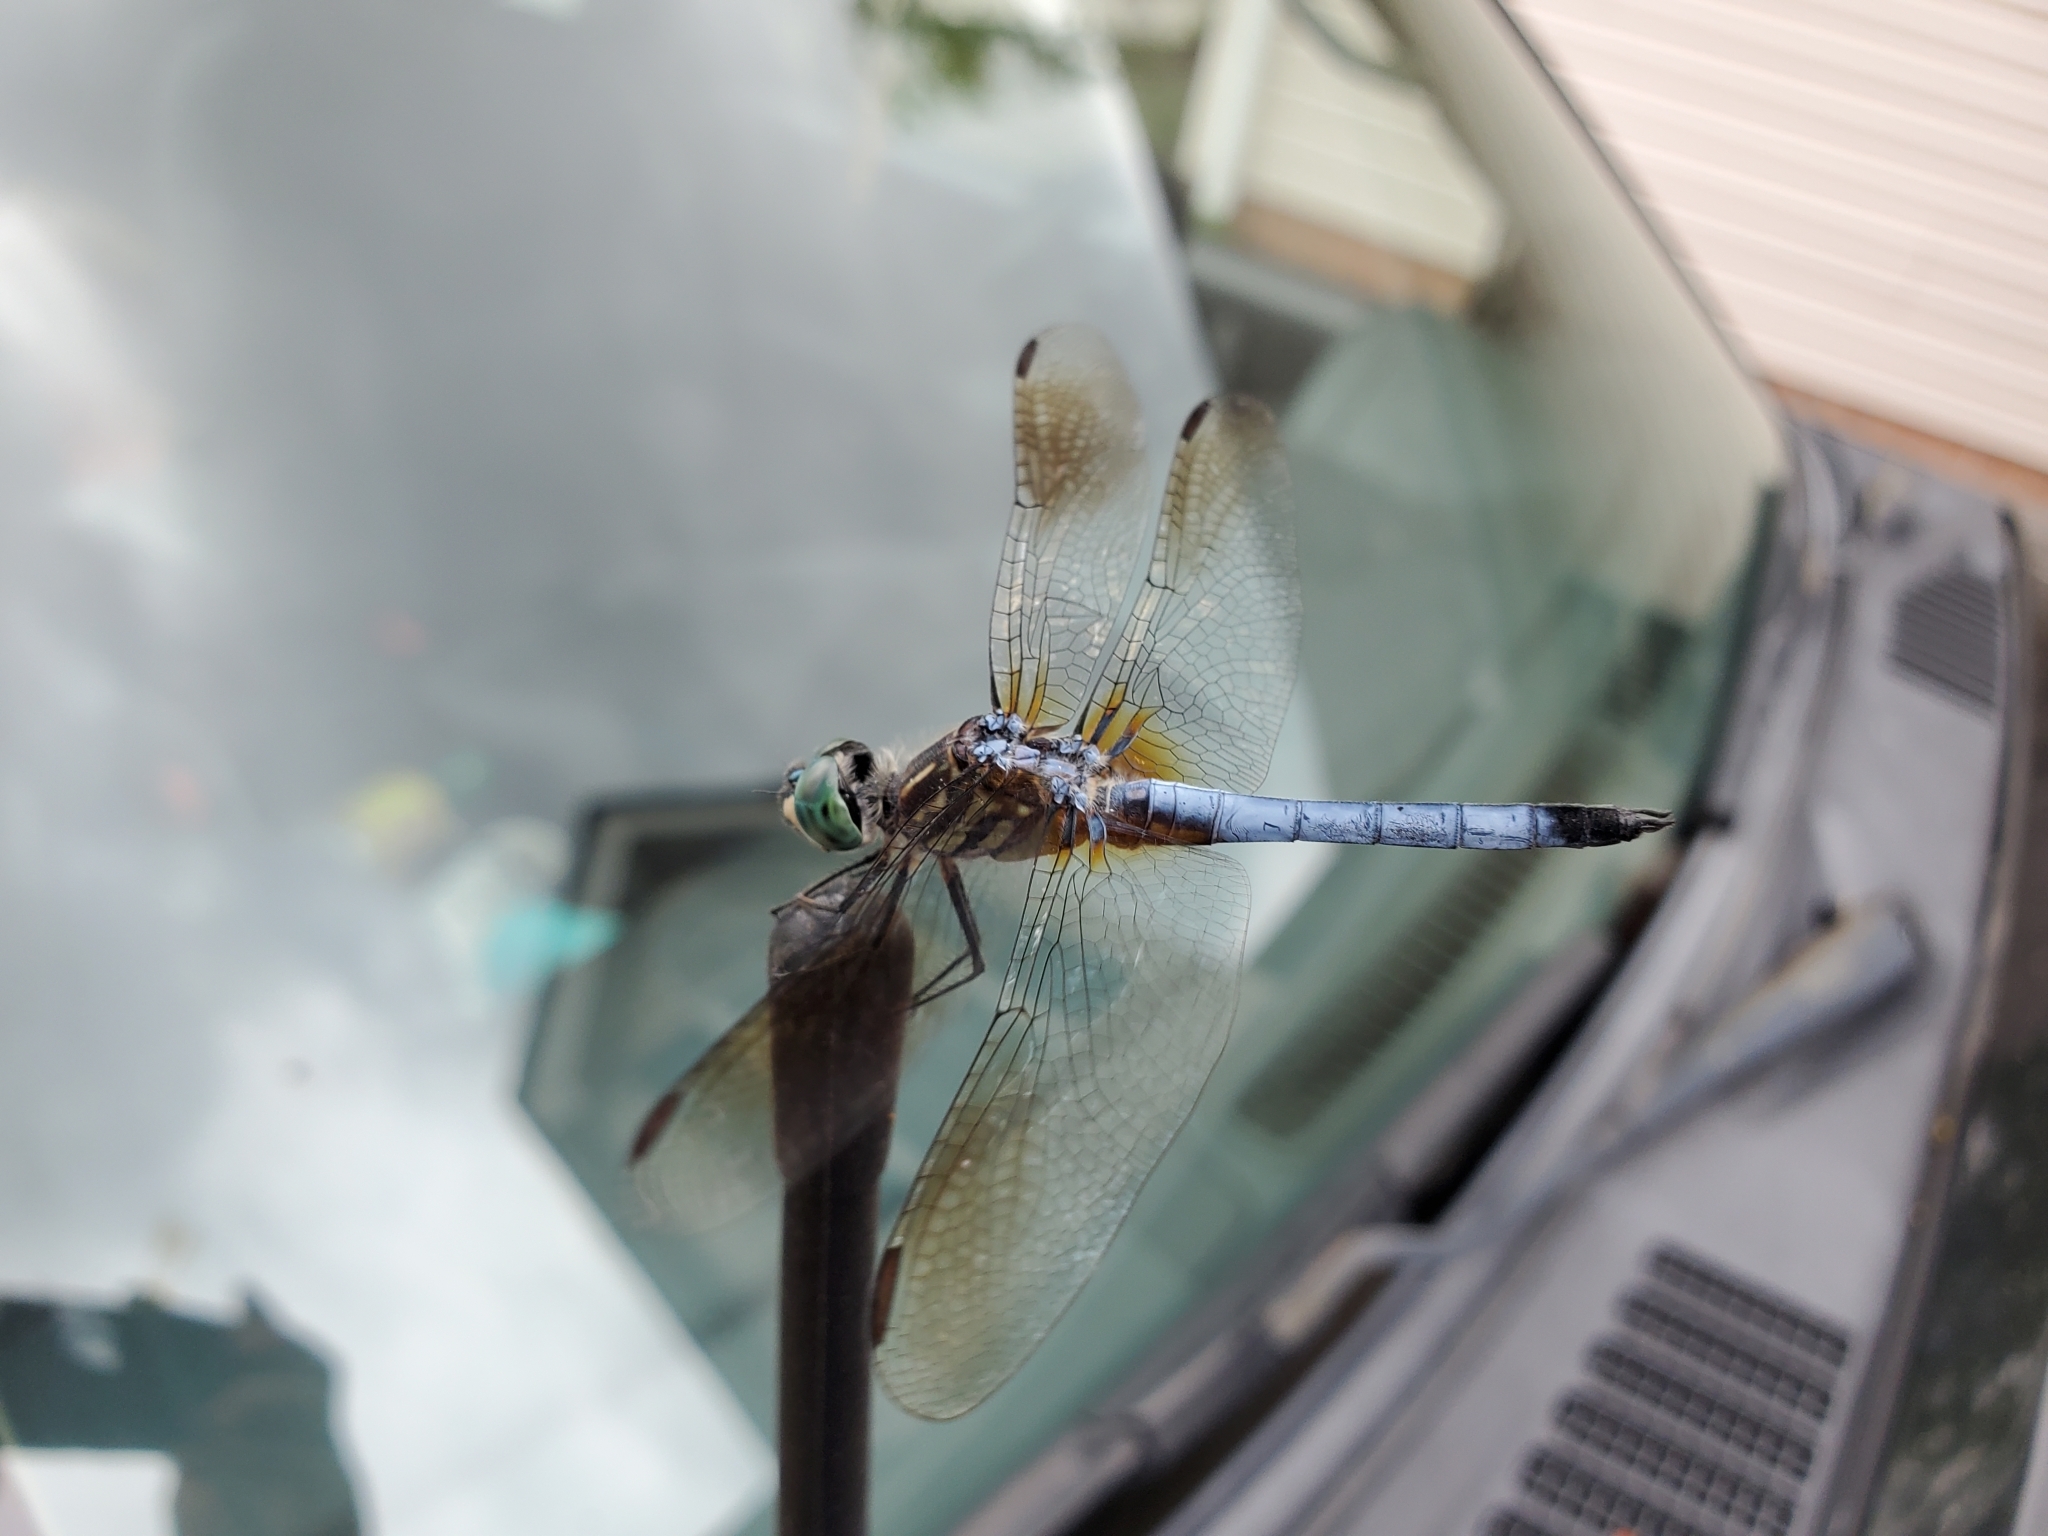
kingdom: Animalia
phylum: Arthropoda
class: Insecta
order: Odonata
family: Libellulidae
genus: Pachydiplax
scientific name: Pachydiplax longipennis
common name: Blue dasher
